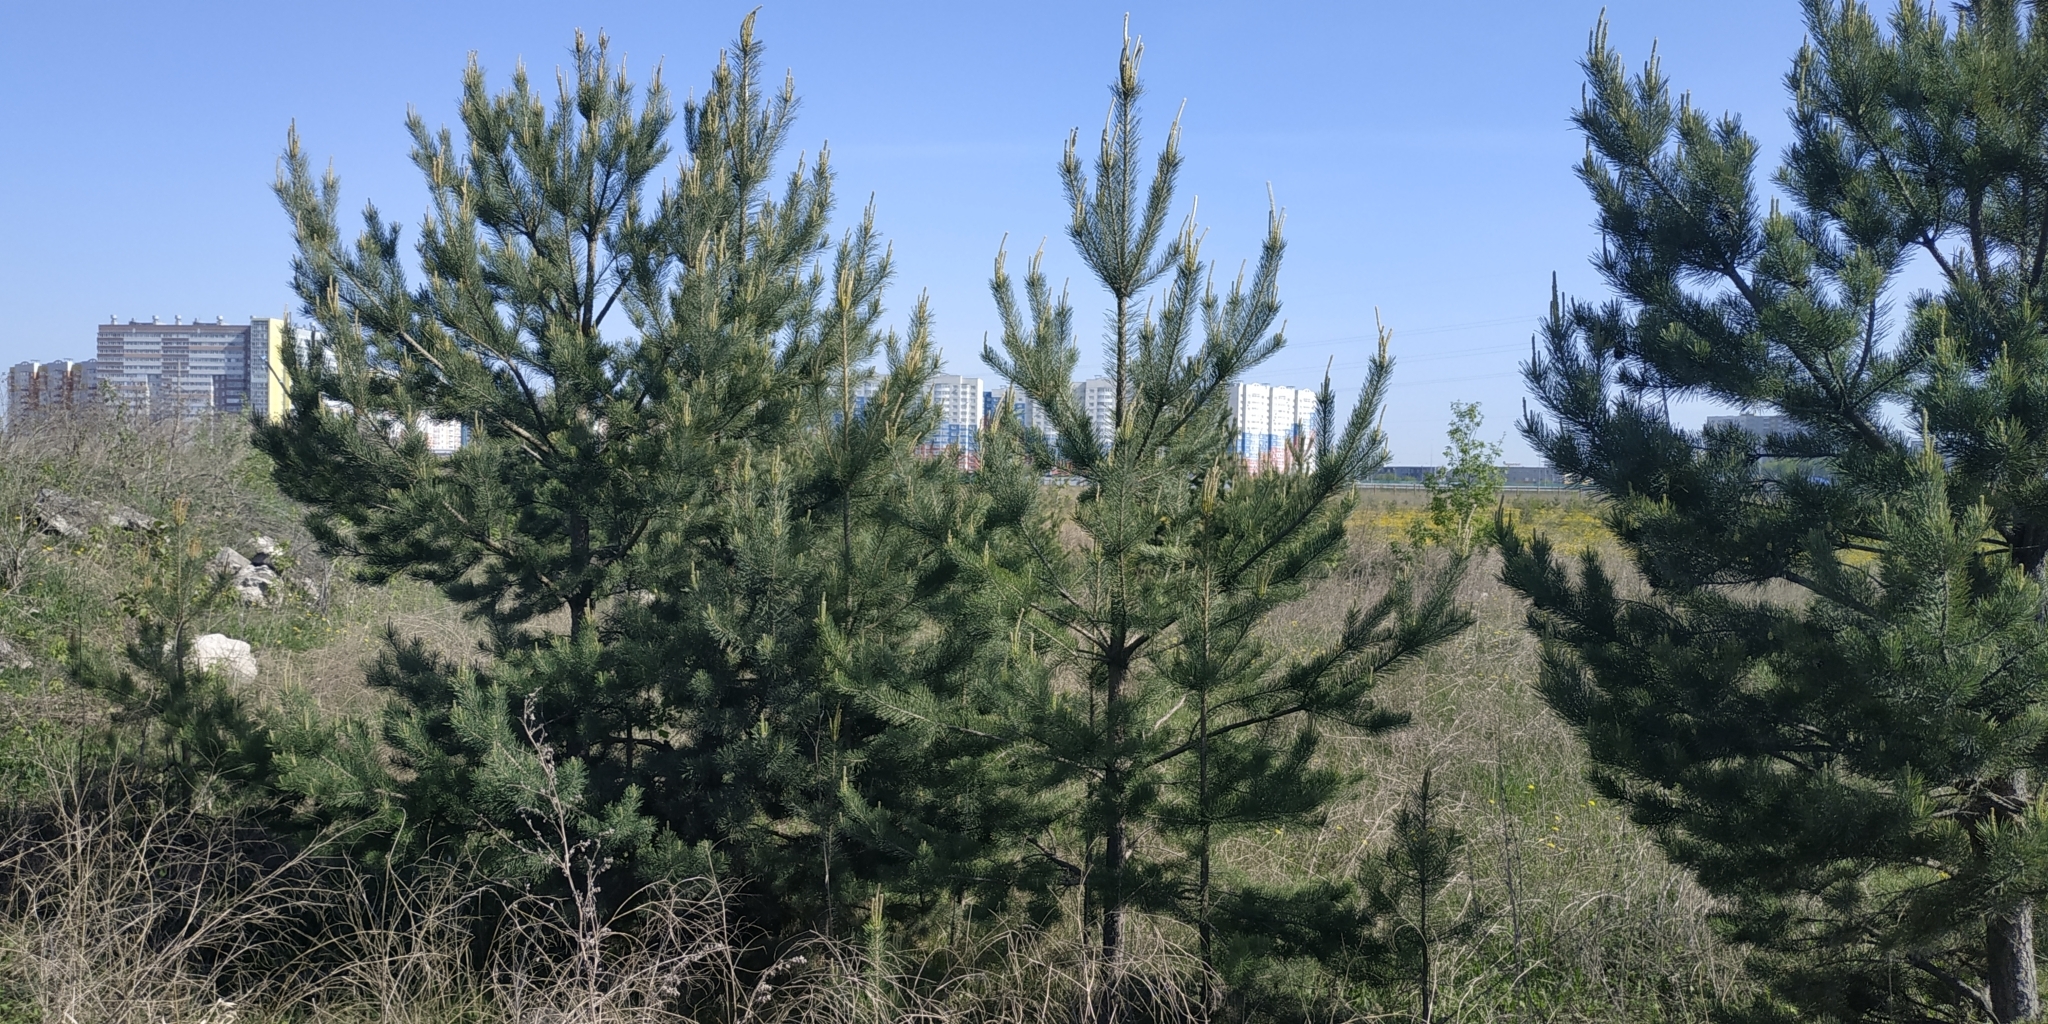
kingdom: Plantae
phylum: Tracheophyta
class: Pinopsida
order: Pinales
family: Pinaceae
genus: Pinus
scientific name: Pinus sylvestris
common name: Scots pine
